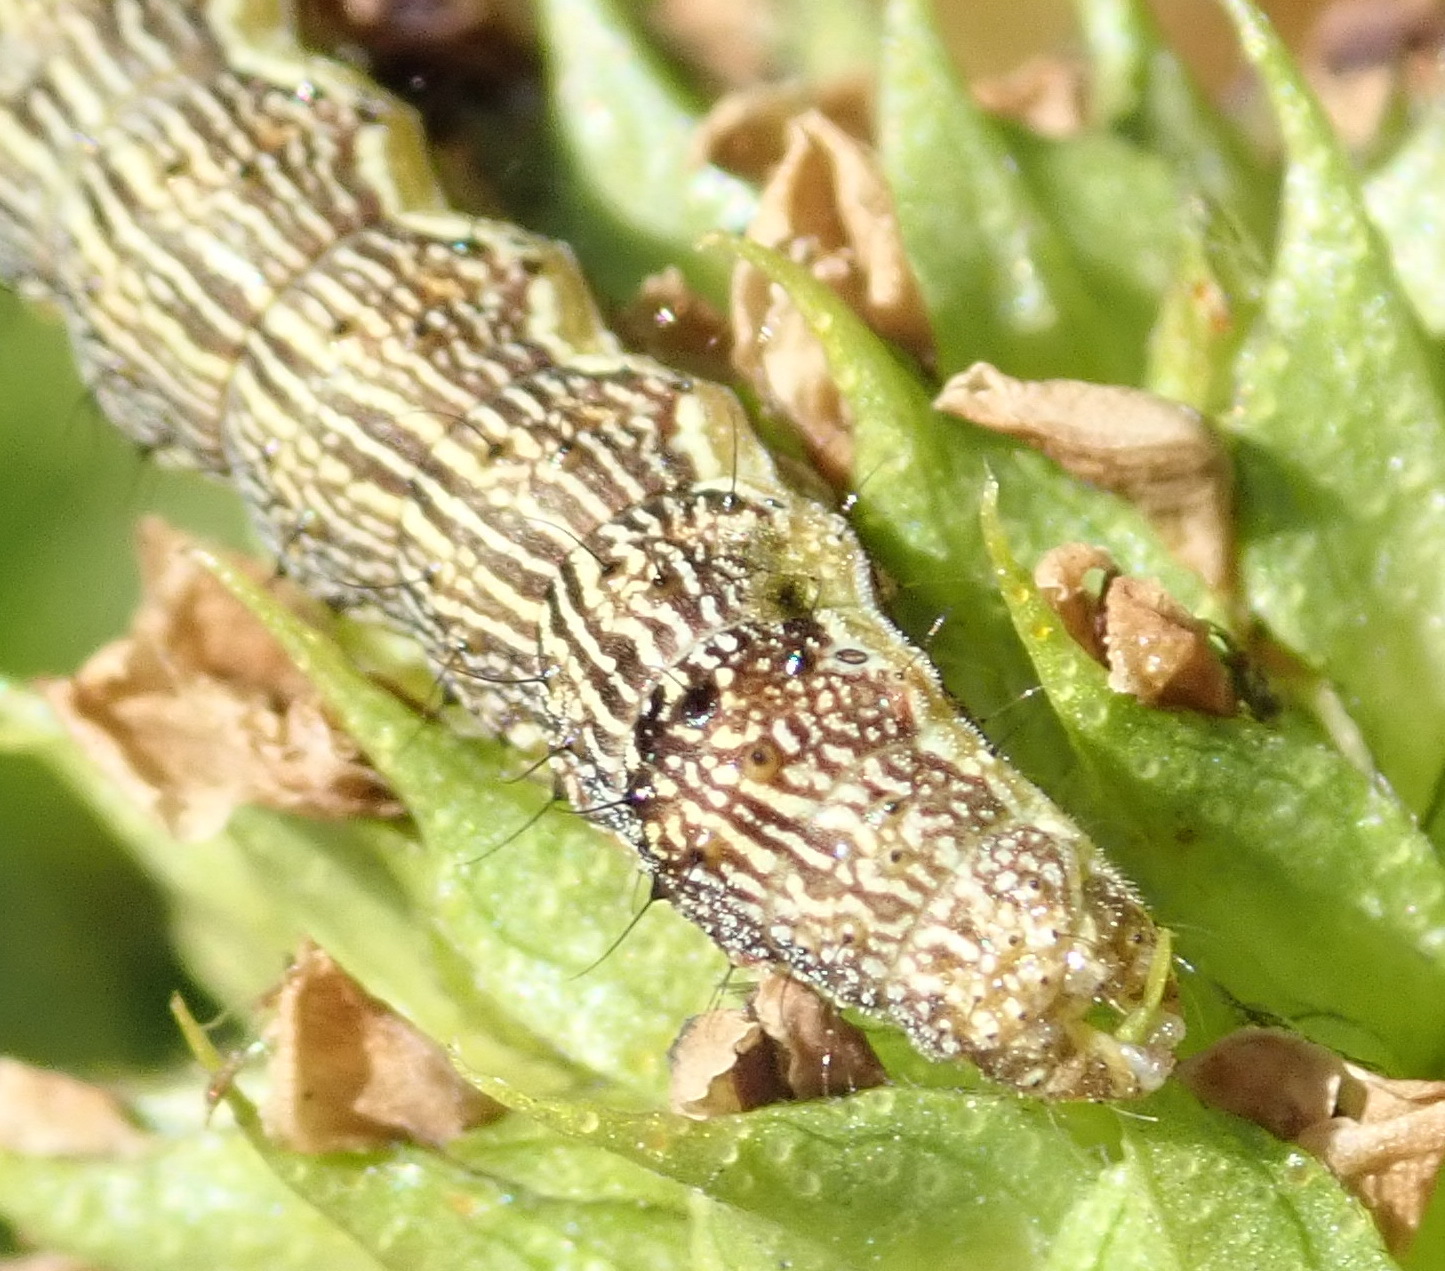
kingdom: Animalia
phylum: Arthropoda
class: Insecta
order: Lepidoptera
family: Noctuidae
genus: Helicoverpa
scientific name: Helicoverpa armigera
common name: Cotton bollworm
